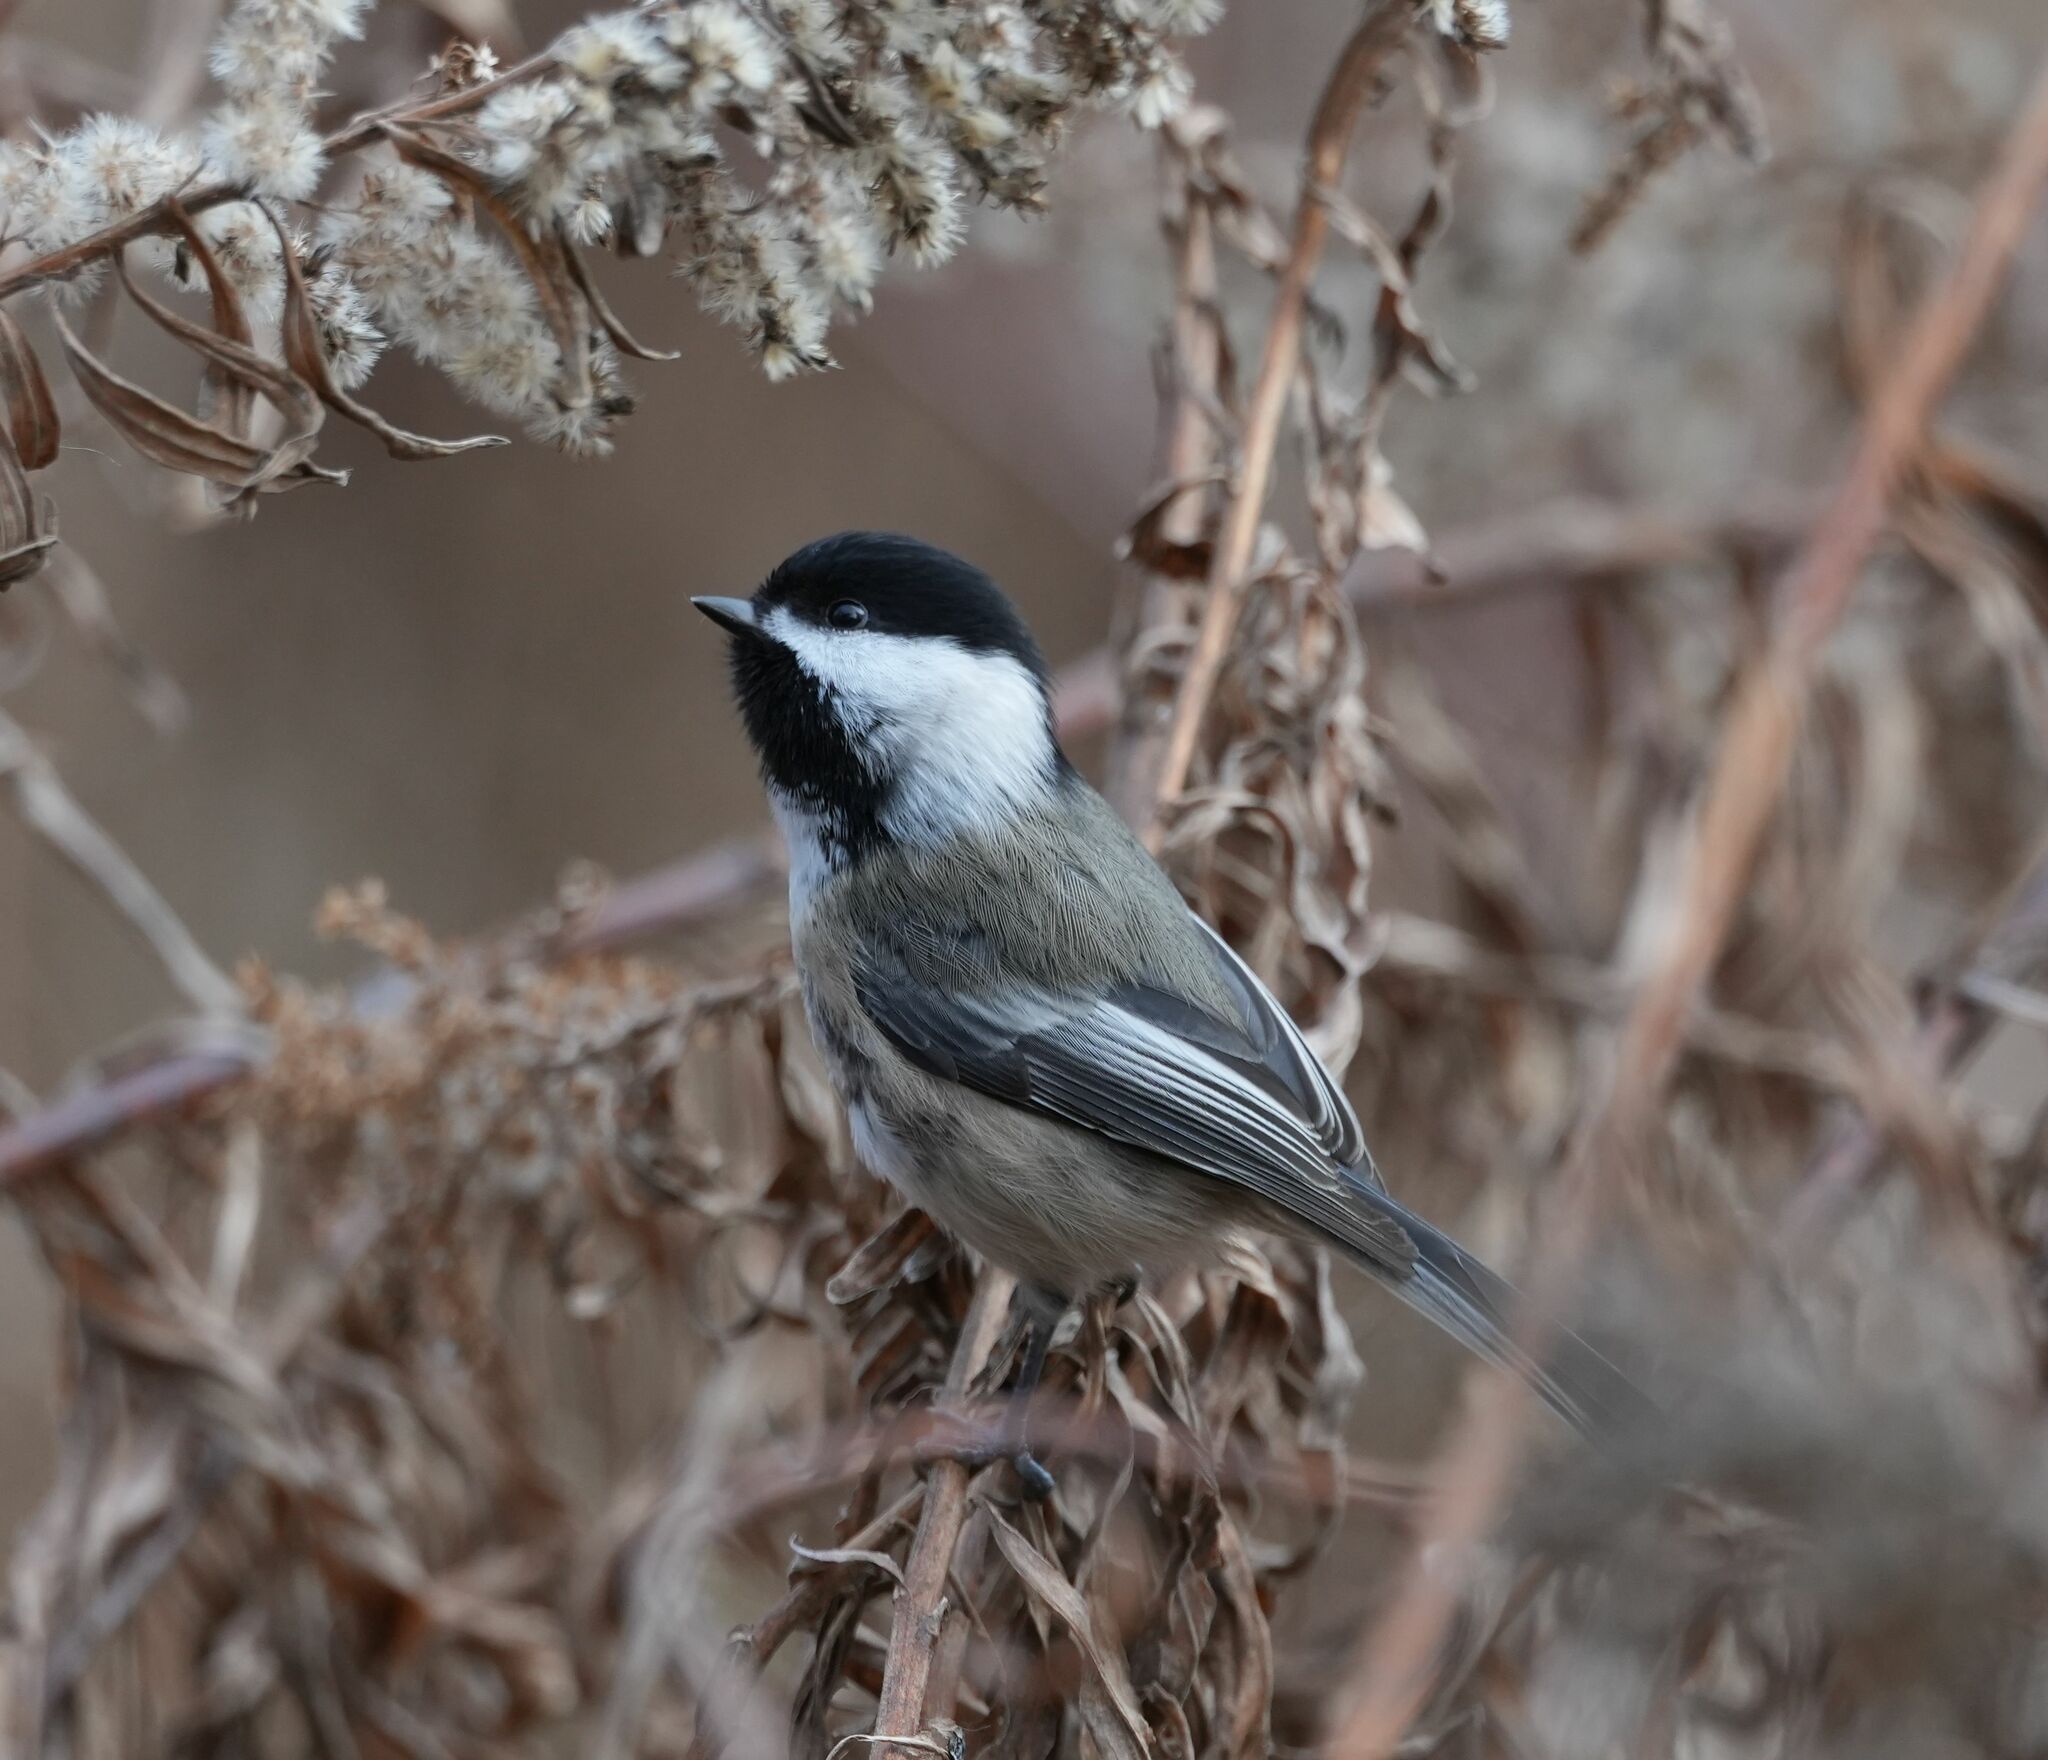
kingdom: Animalia
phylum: Chordata
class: Aves
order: Passeriformes
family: Paridae
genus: Poecile
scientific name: Poecile atricapillus
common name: Black-capped chickadee
